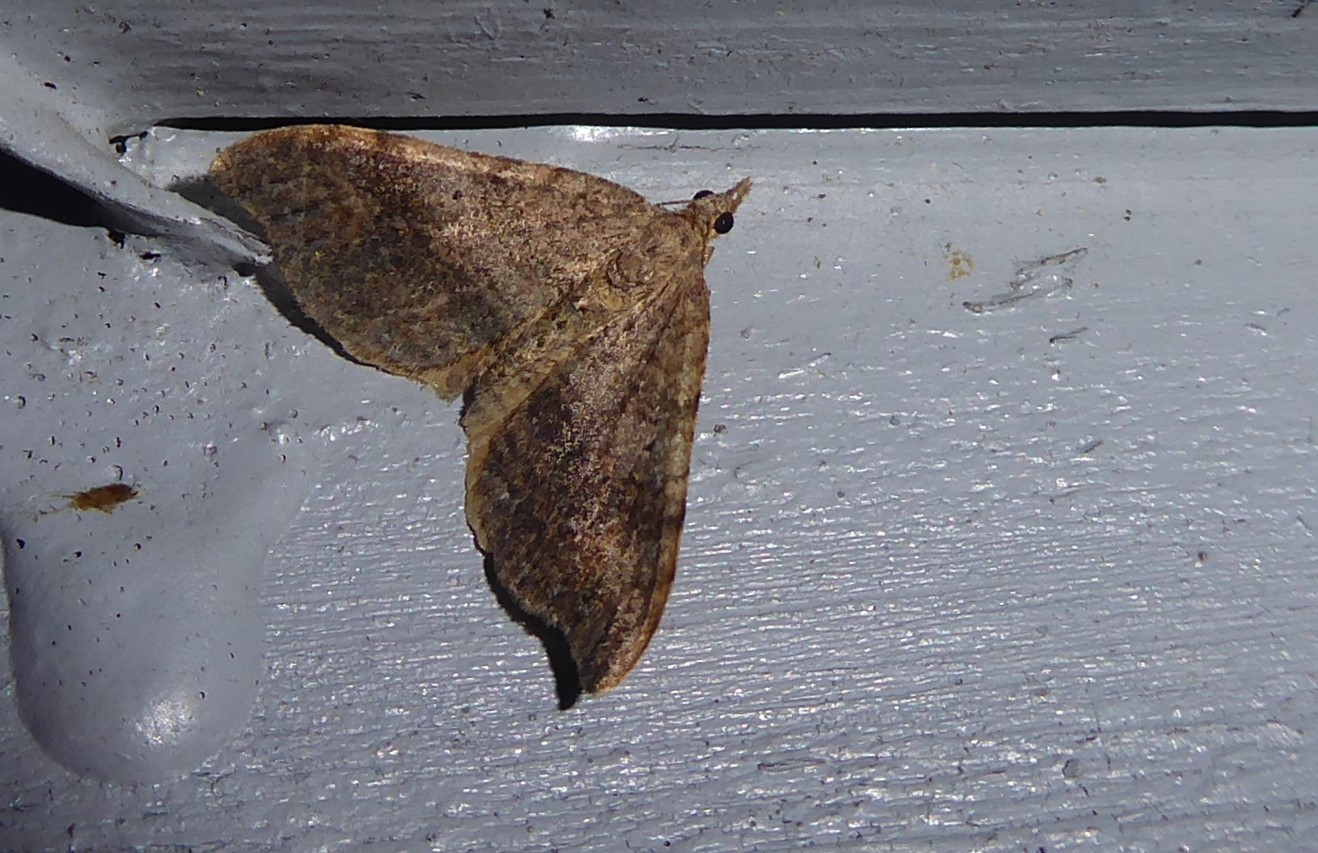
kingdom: Animalia
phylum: Arthropoda
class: Insecta
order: Lepidoptera
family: Geometridae
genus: Homodotis
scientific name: Homodotis megaspilata
